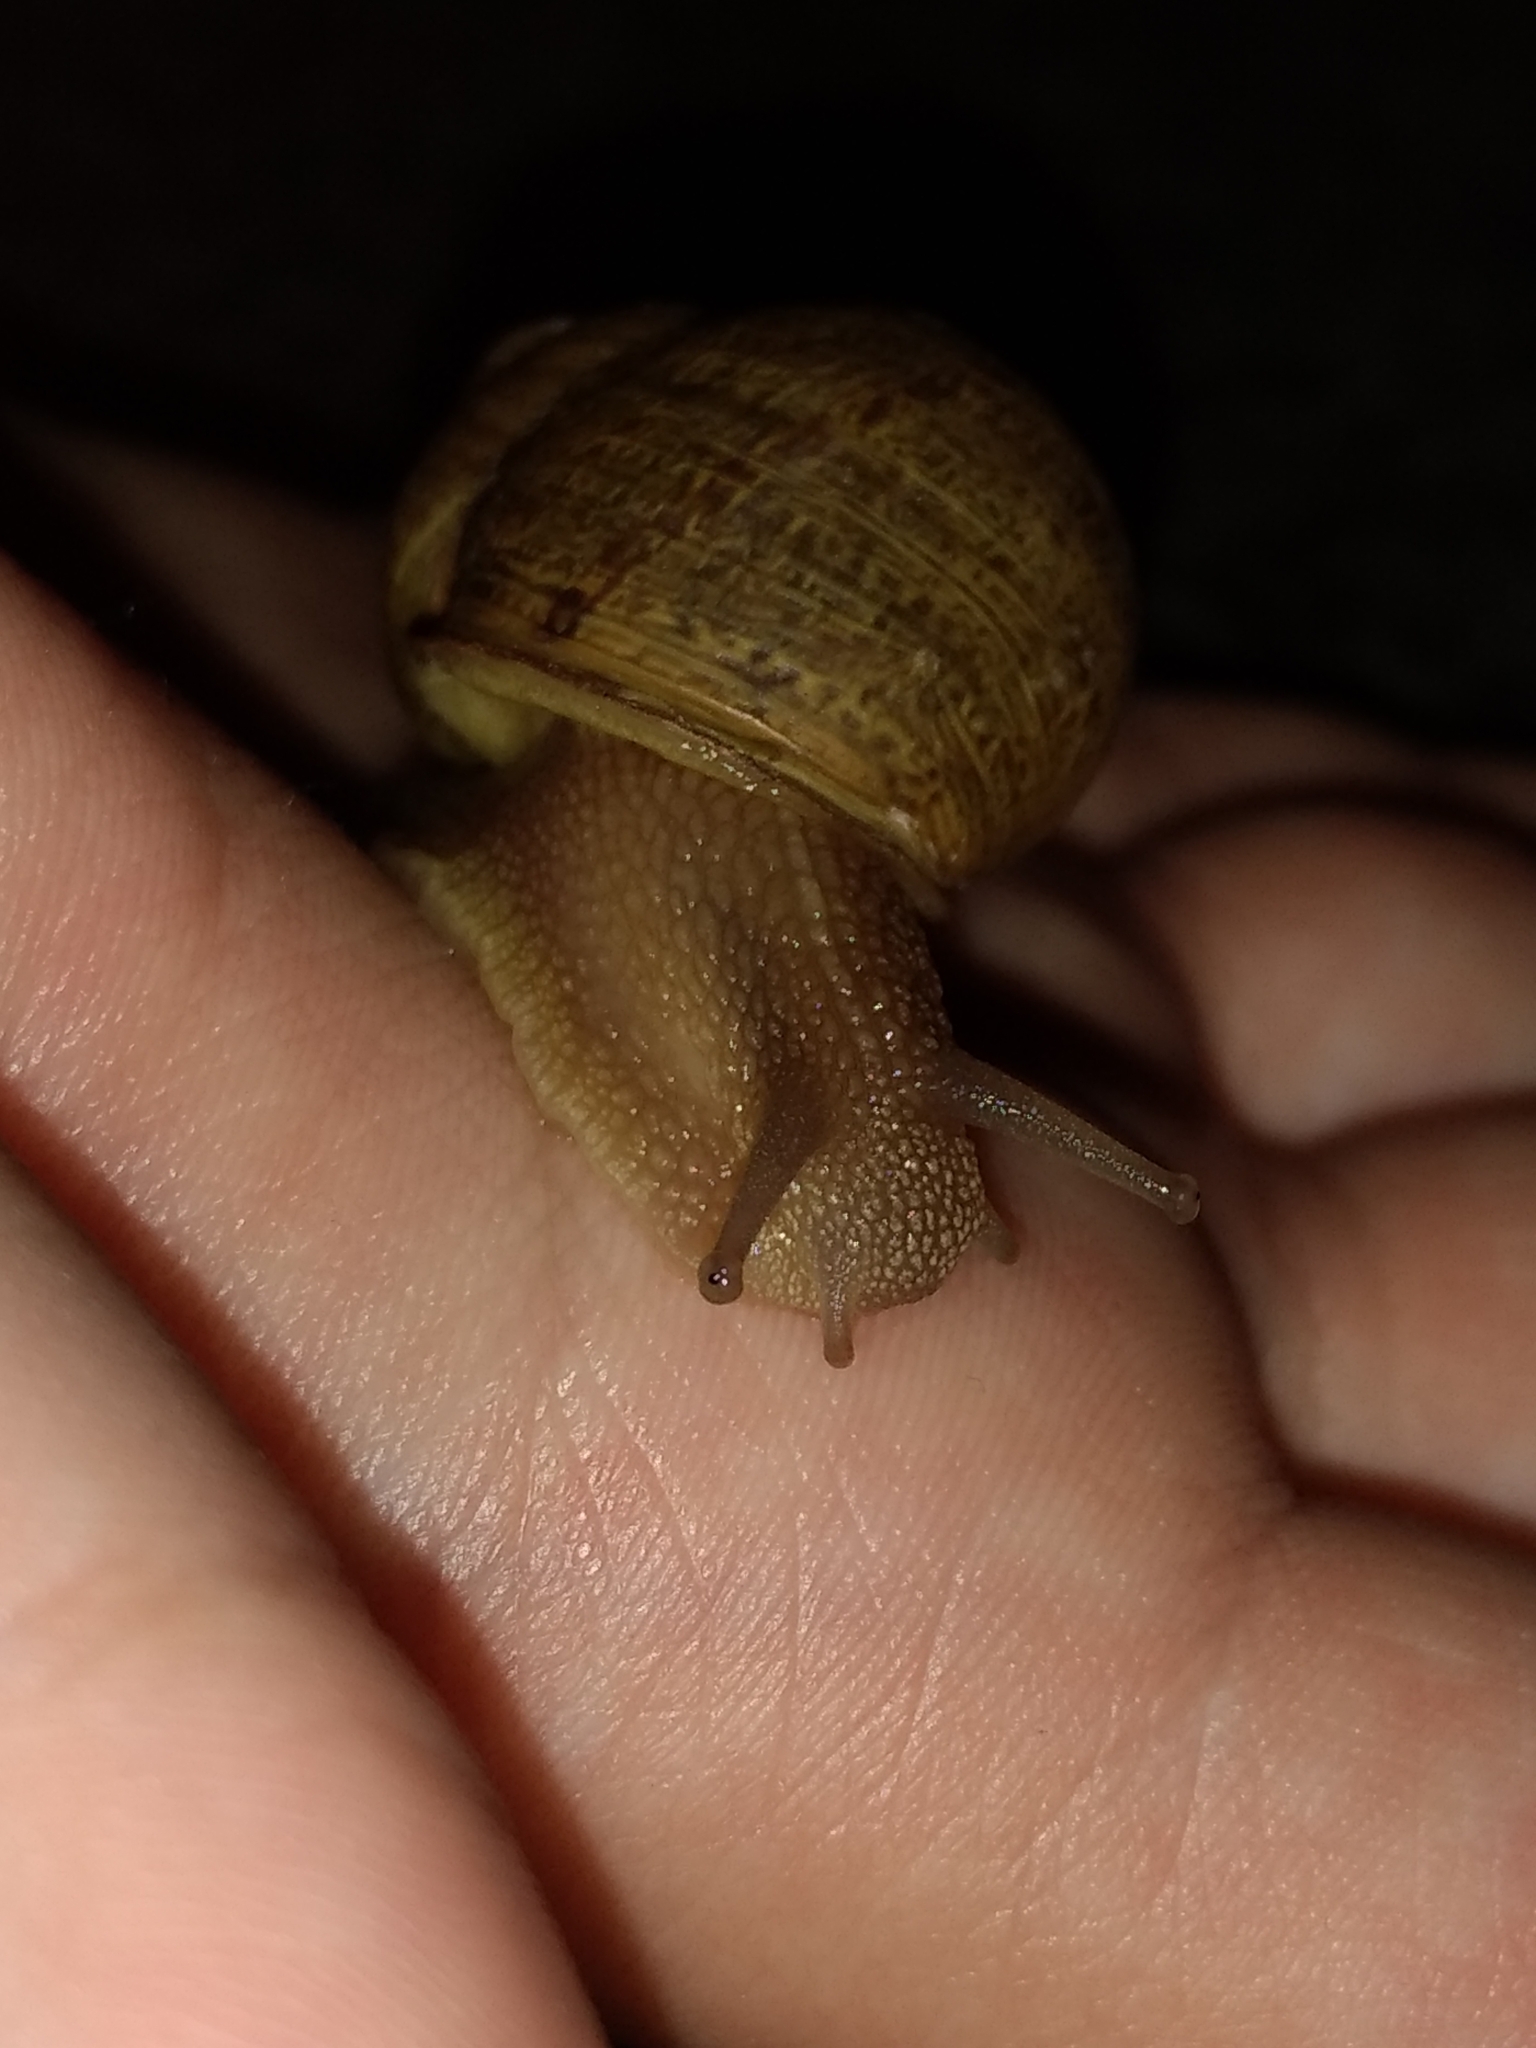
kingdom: Animalia
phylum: Mollusca
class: Gastropoda
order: Stylommatophora
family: Helicidae
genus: Cornu
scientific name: Cornu aspersum
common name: Brown garden snail
